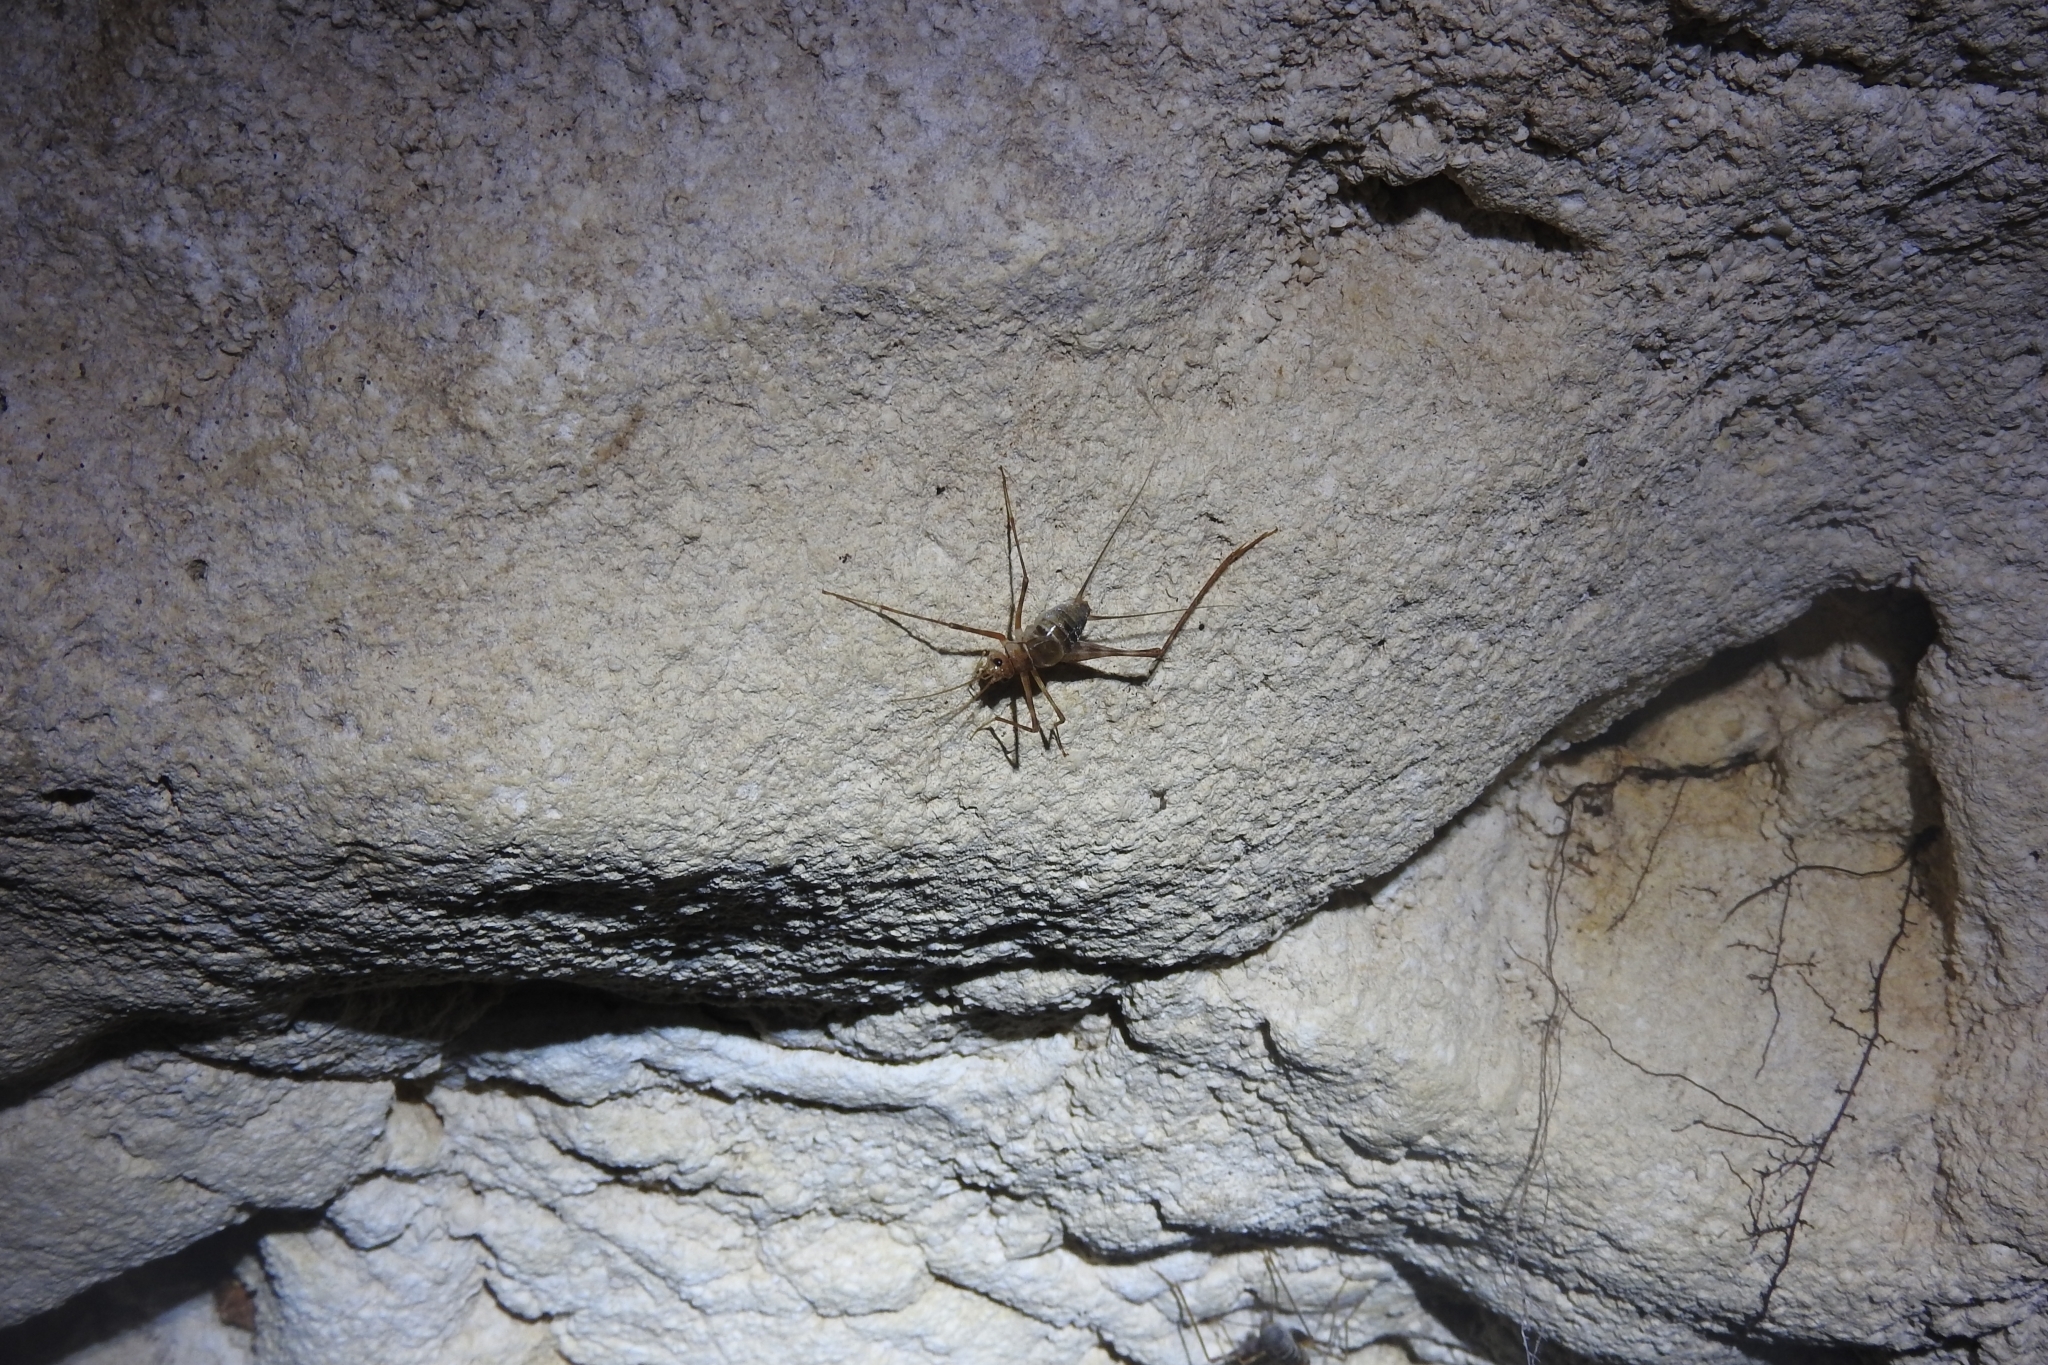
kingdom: Animalia
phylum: Arthropoda
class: Insecta
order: Orthoptera
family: Phalangopsidae
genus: Mayagryllus
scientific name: Mayagryllus yucatanus
